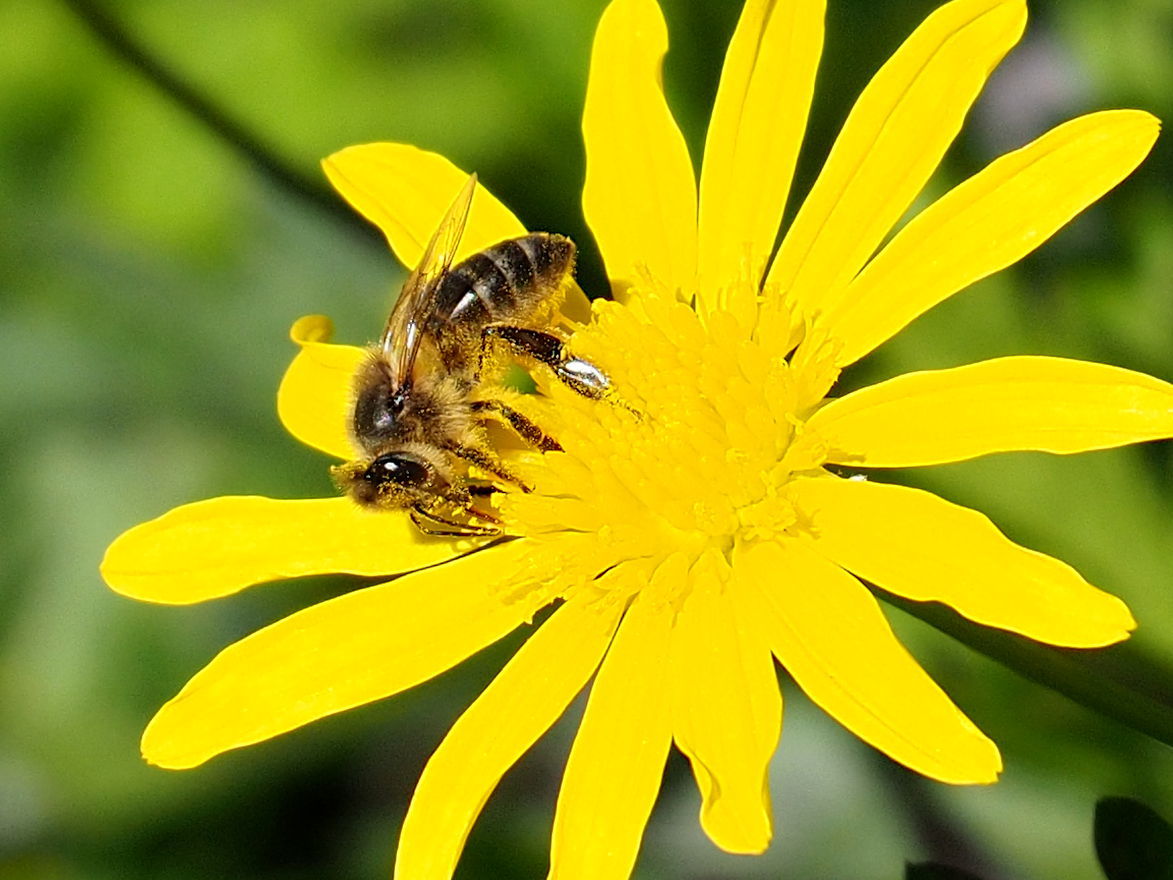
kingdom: Animalia
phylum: Arthropoda
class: Insecta
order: Hymenoptera
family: Apidae
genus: Apis
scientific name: Apis mellifera
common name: Honey bee
